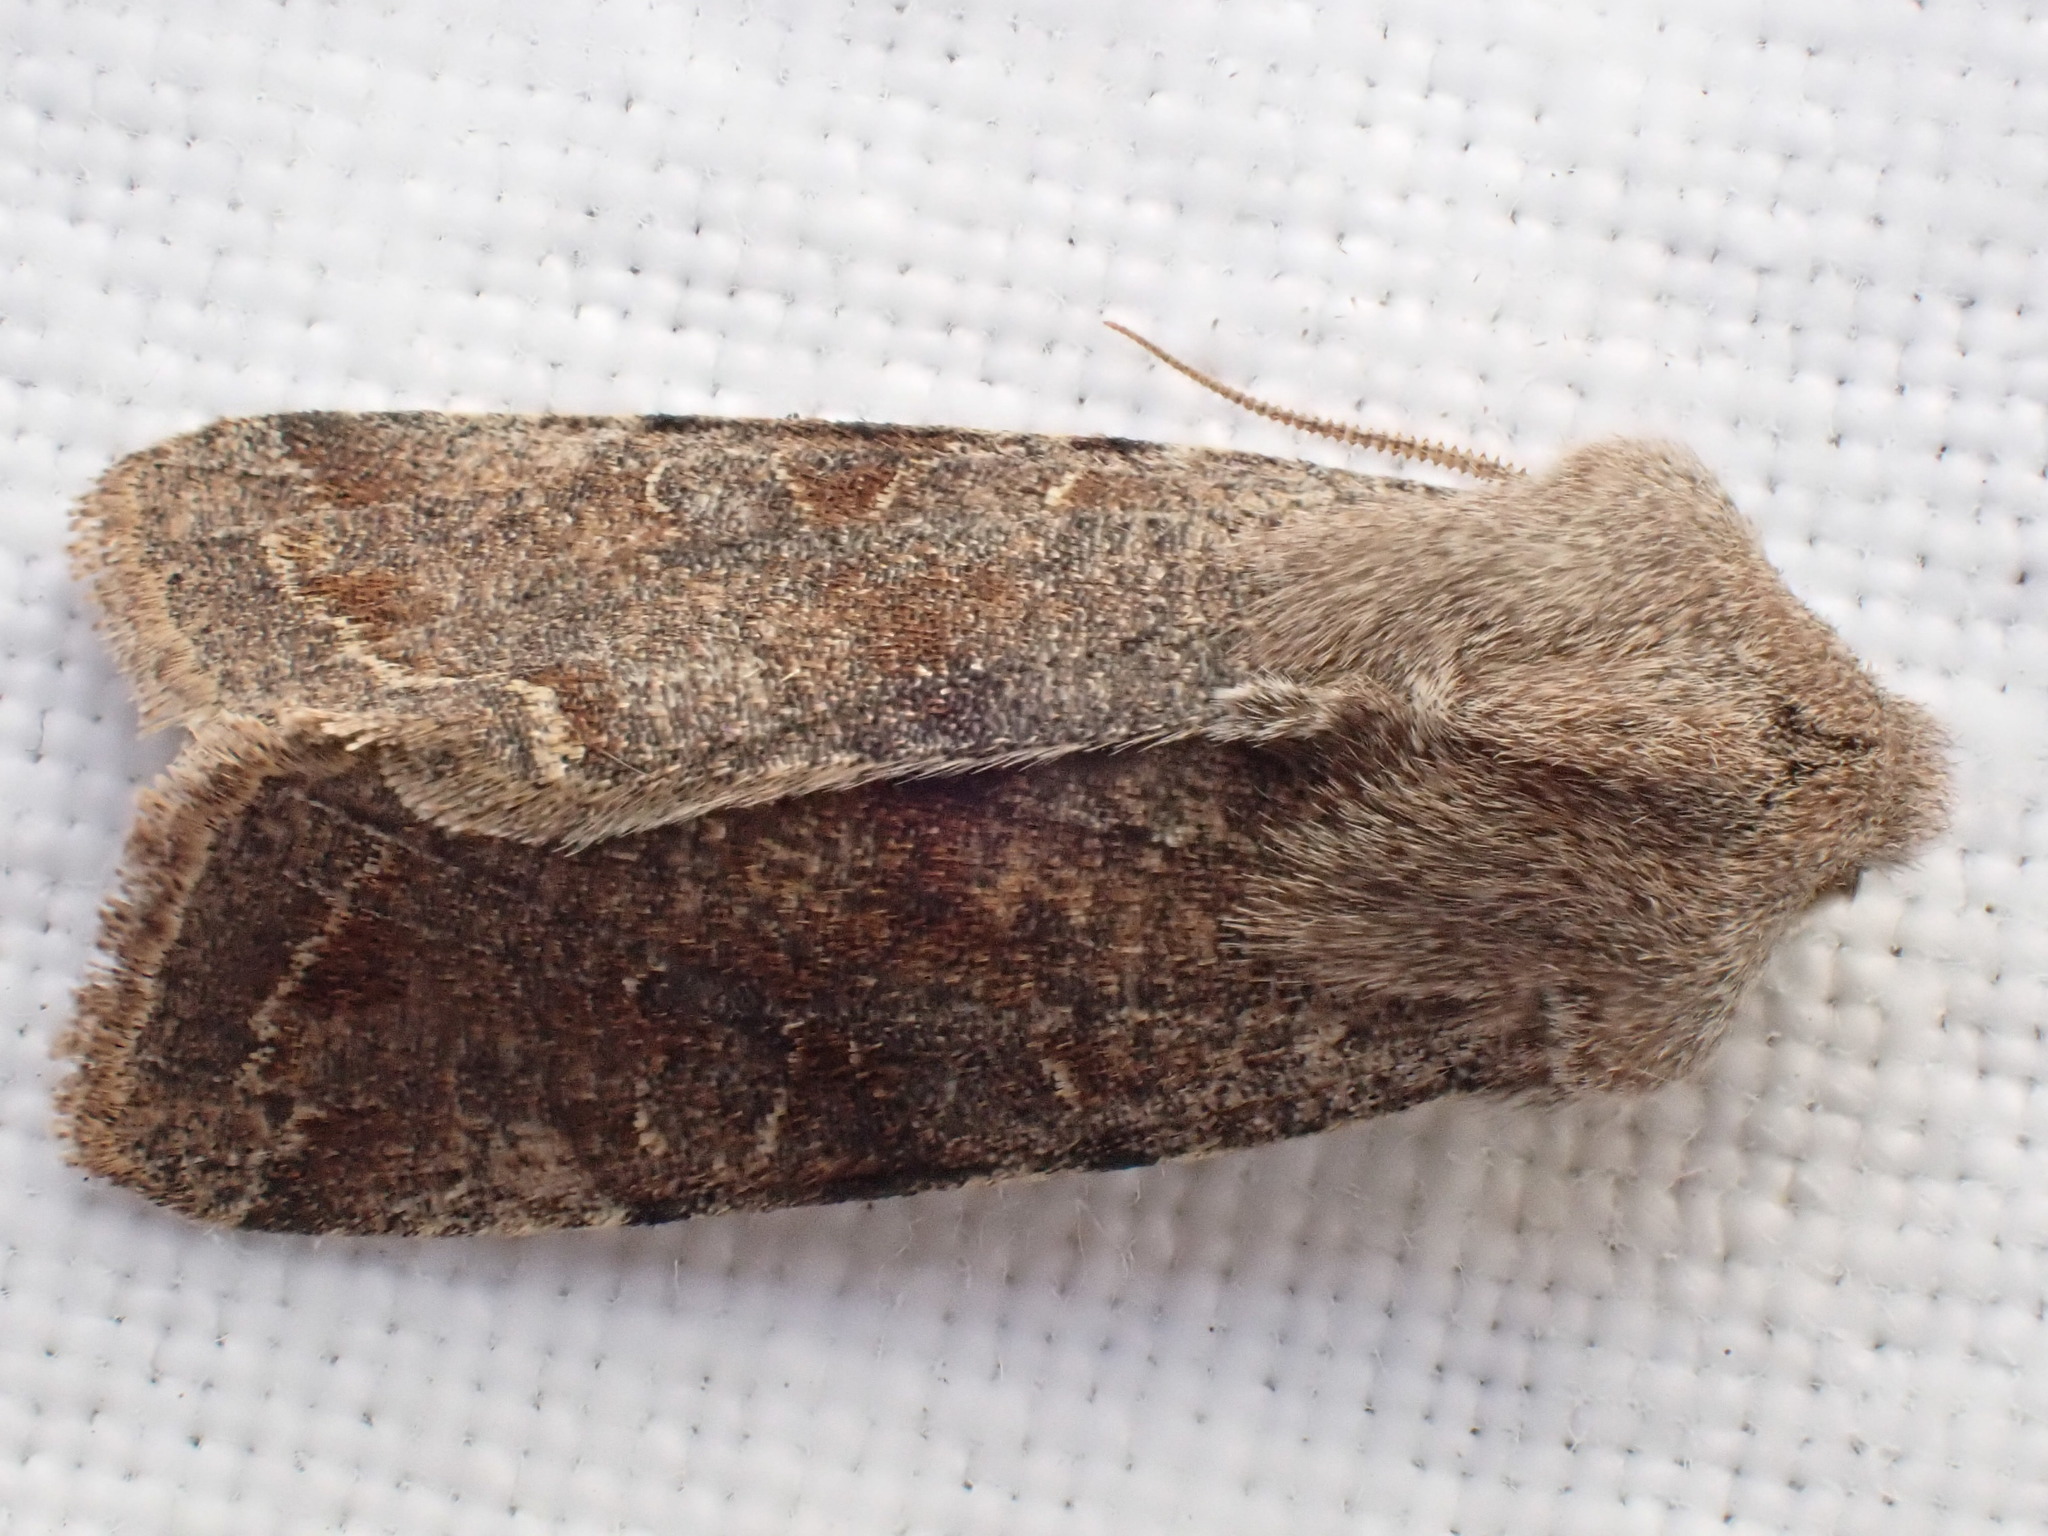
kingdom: Animalia
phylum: Arthropoda
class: Insecta
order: Lepidoptera
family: Noctuidae
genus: Orthosia
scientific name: Orthosia incerta
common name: Clouded drab
